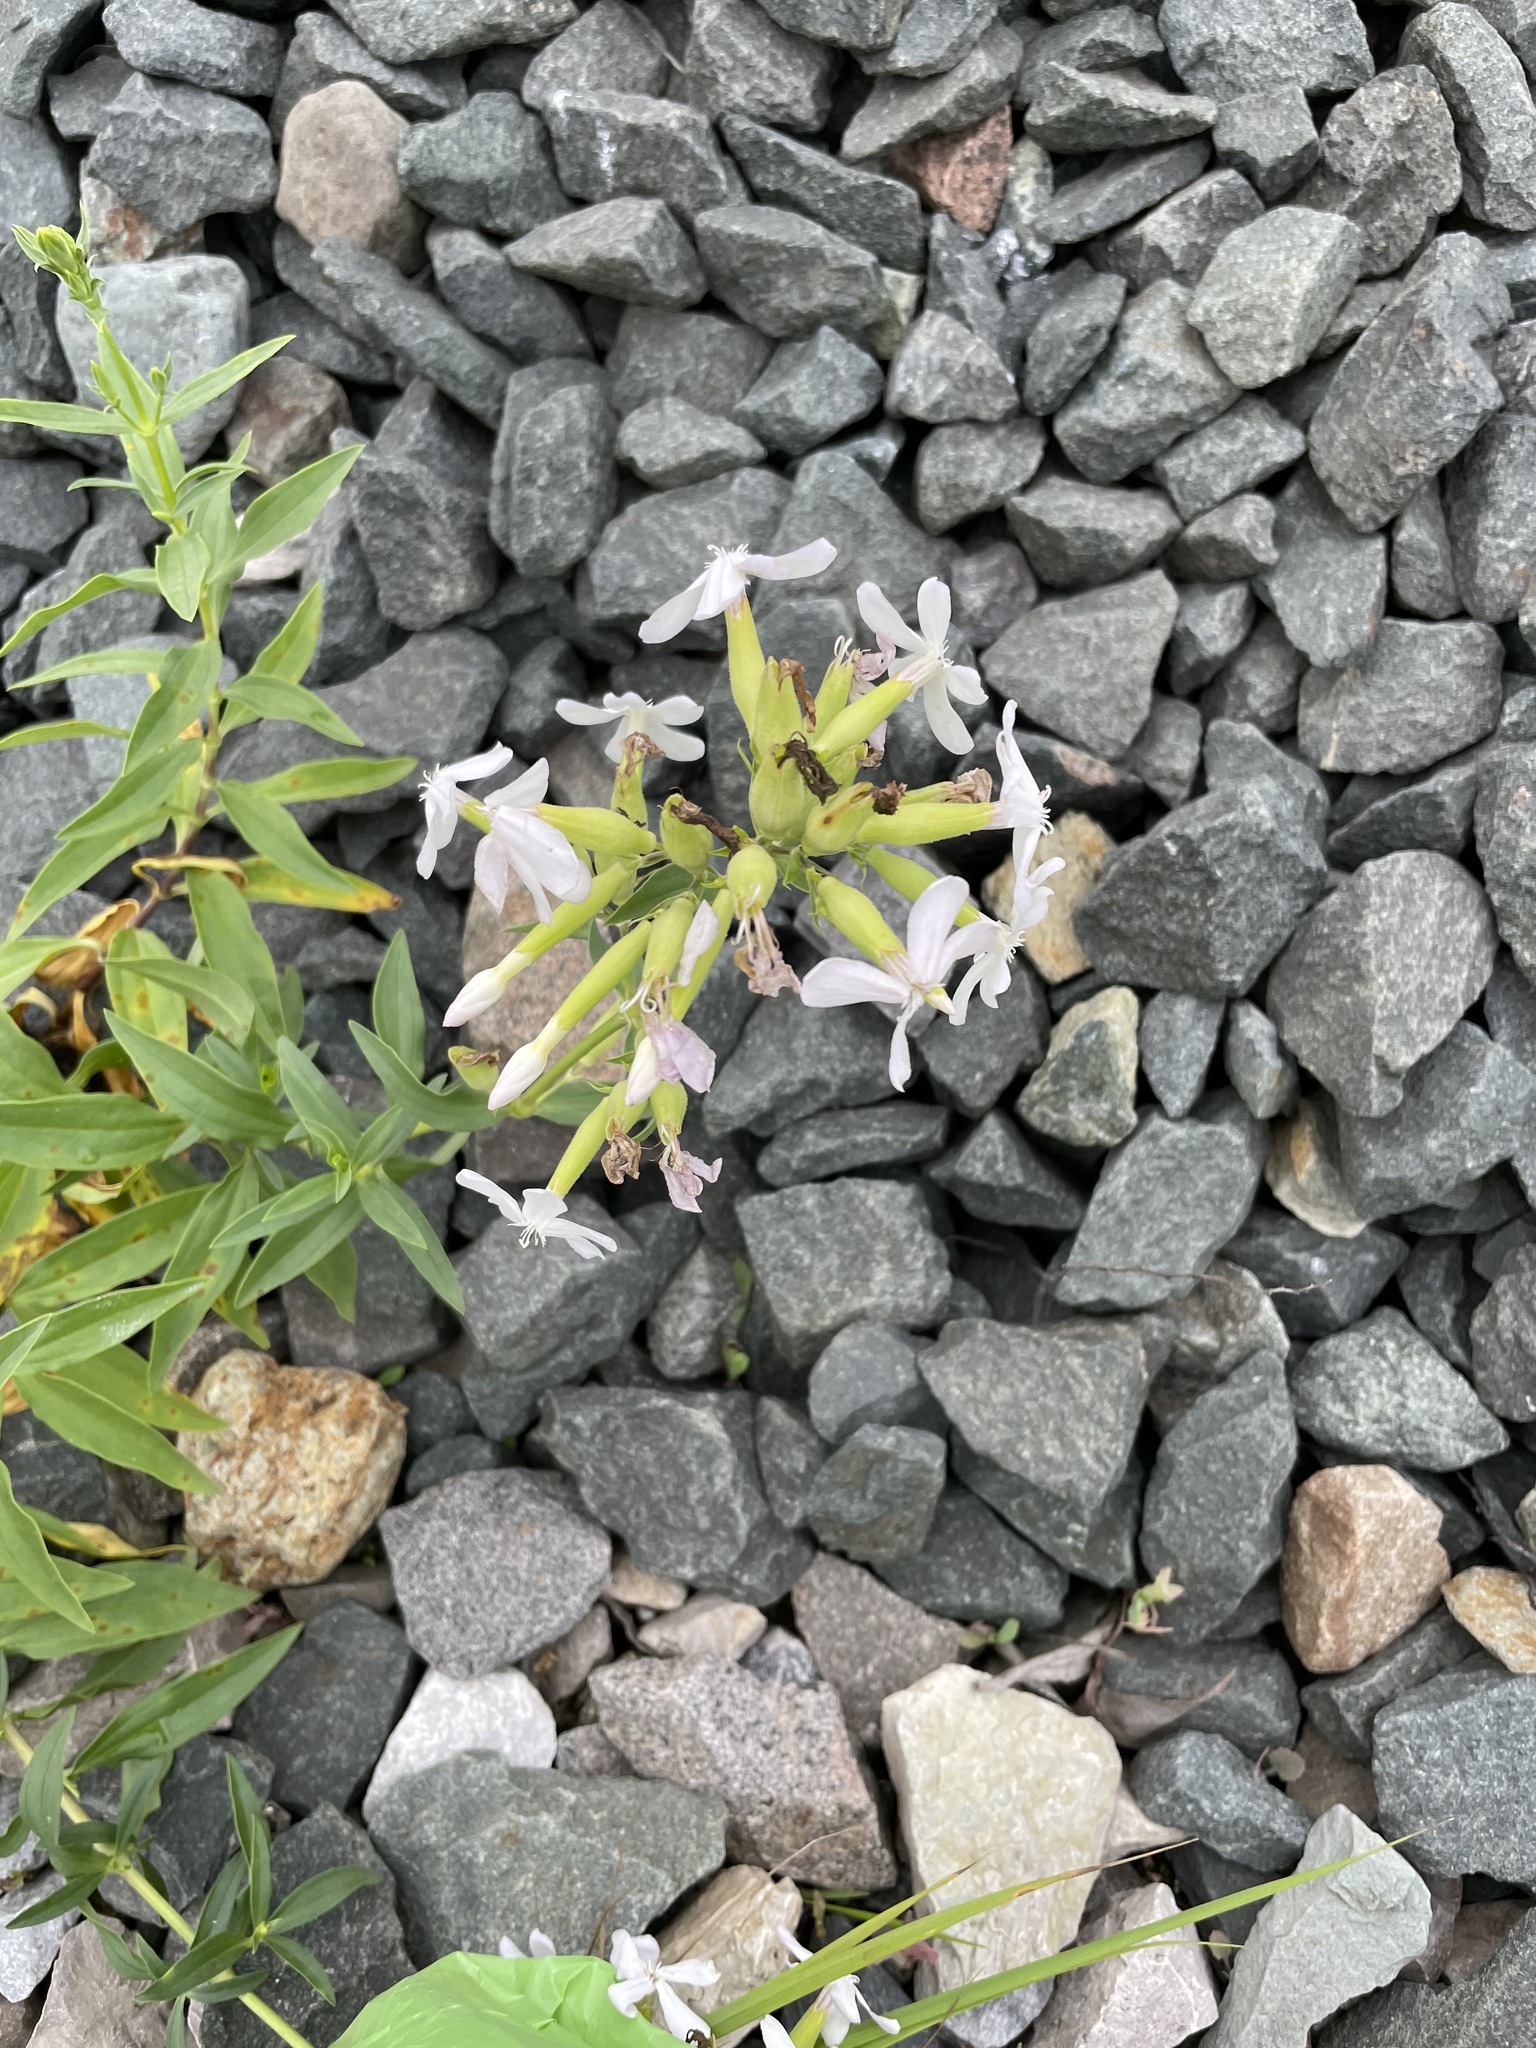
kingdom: Plantae
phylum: Tracheophyta
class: Magnoliopsida
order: Caryophyllales
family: Caryophyllaceae
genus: Saponaria
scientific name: Saponaria officinalis
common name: Soapwort
